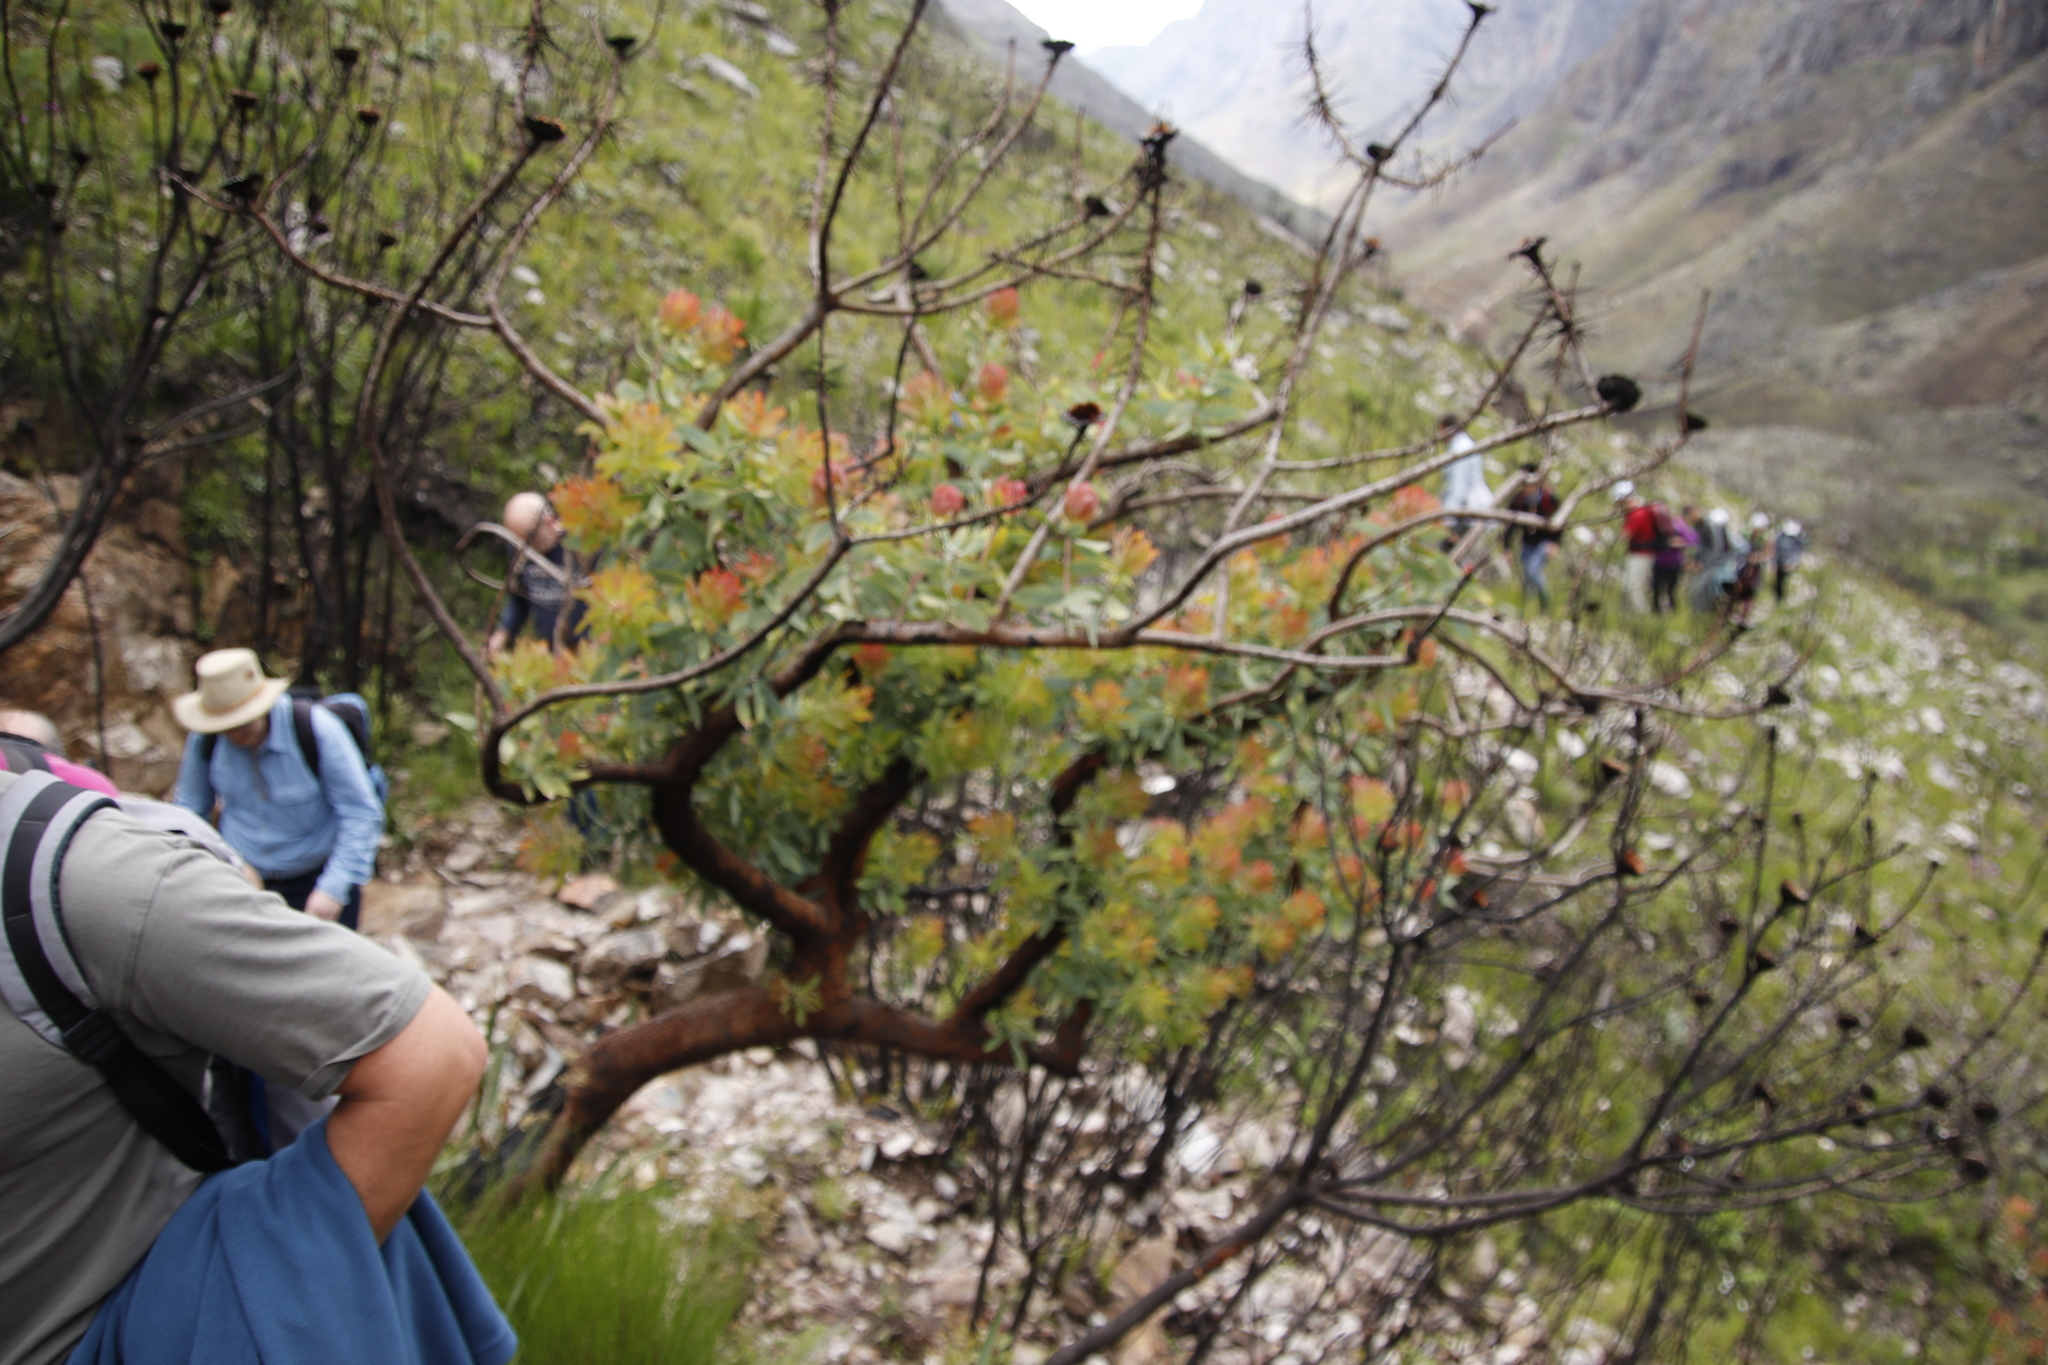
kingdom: Plantae
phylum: Tracheophyta
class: Magnoliopsida
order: Proteales
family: Proteaceae
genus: Protea
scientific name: Protea nitida
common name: Tree protea
